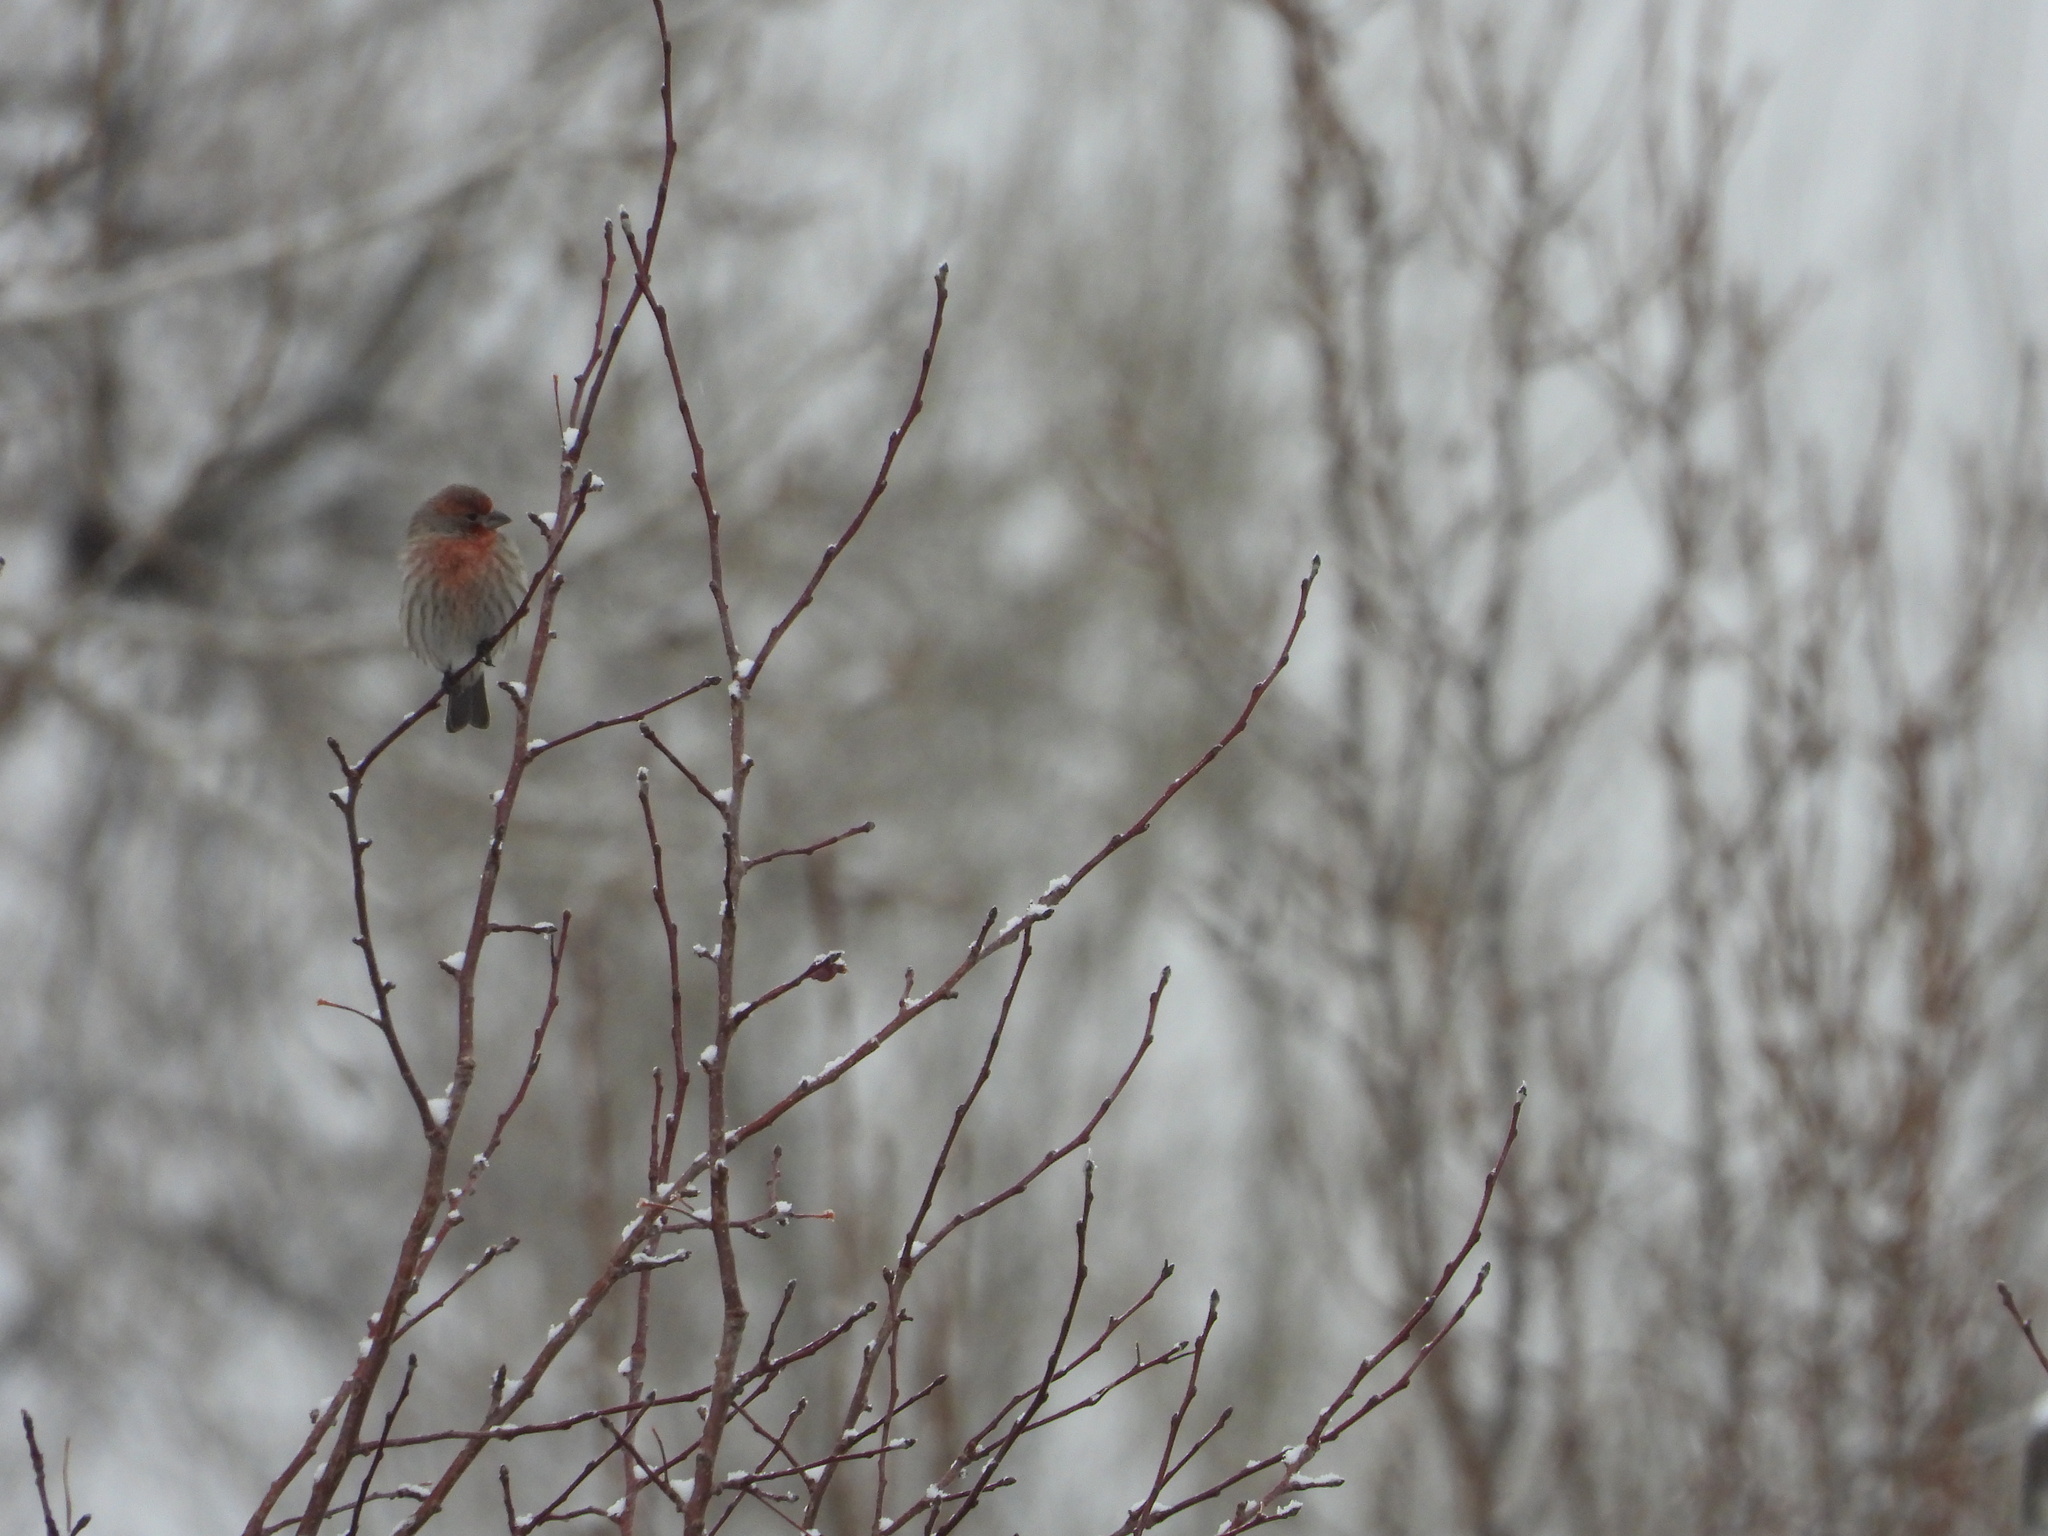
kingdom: Animalia
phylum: Chordata
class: Aves
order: Passeriformes
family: Fringillidae
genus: Haemorhous
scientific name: Haemorhous mexicanus
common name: House finch
